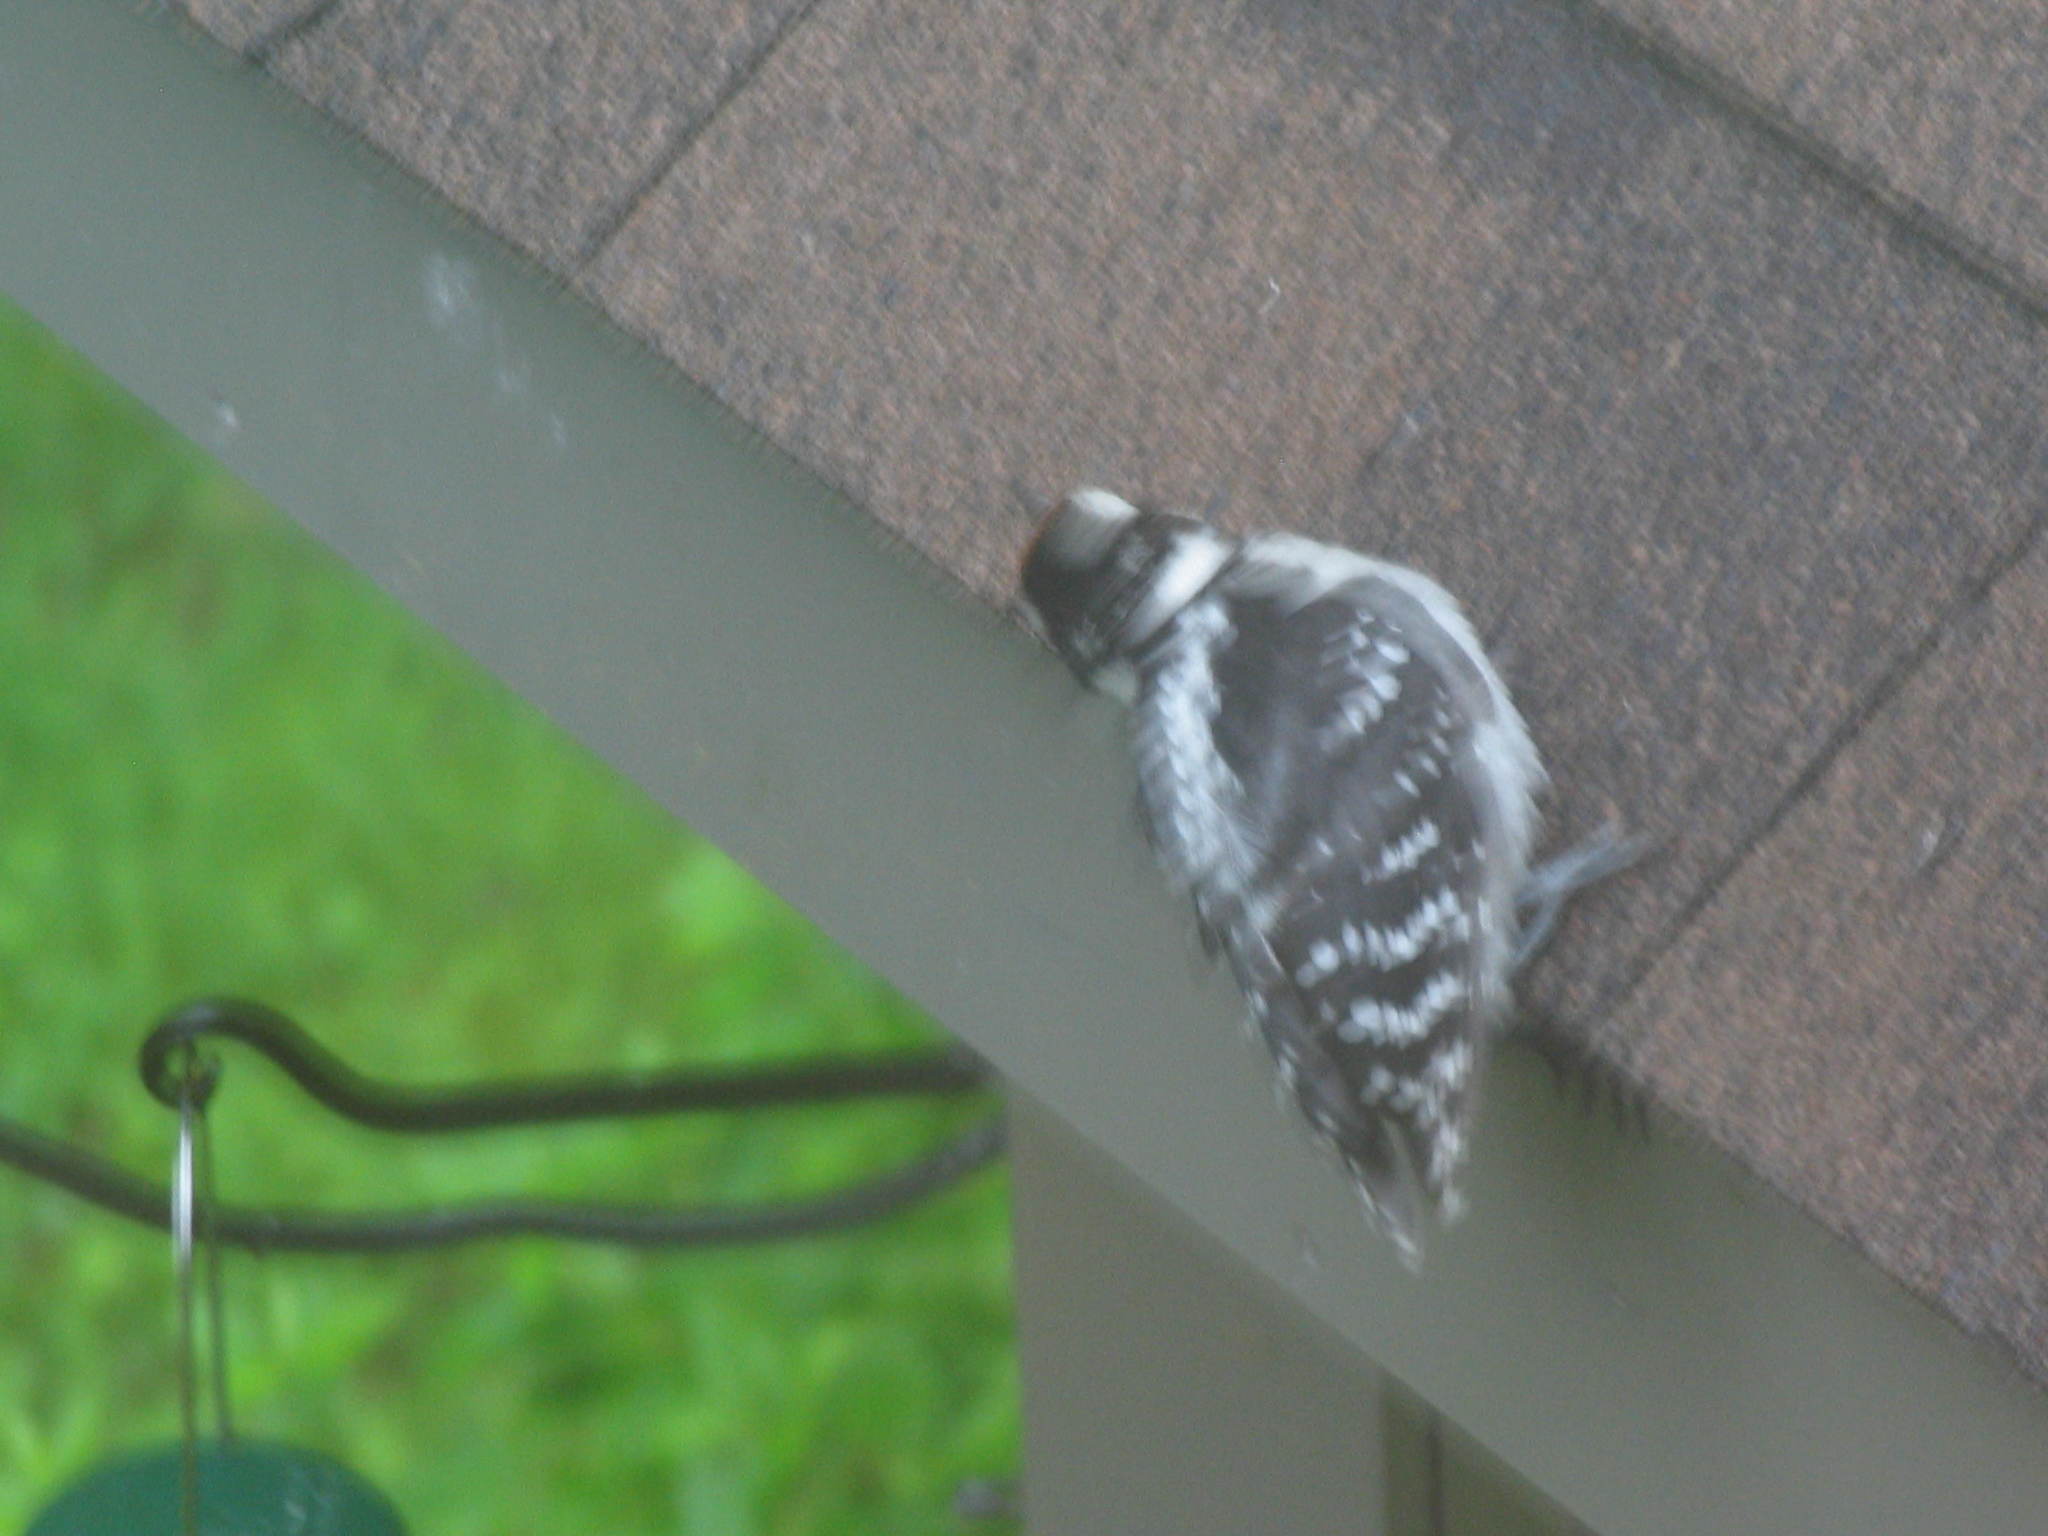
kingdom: Animalia
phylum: Chordata
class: Aves
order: Piciformes
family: Picidae
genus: Dryobates
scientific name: Dryobates pubescens
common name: Downy woodpecker
